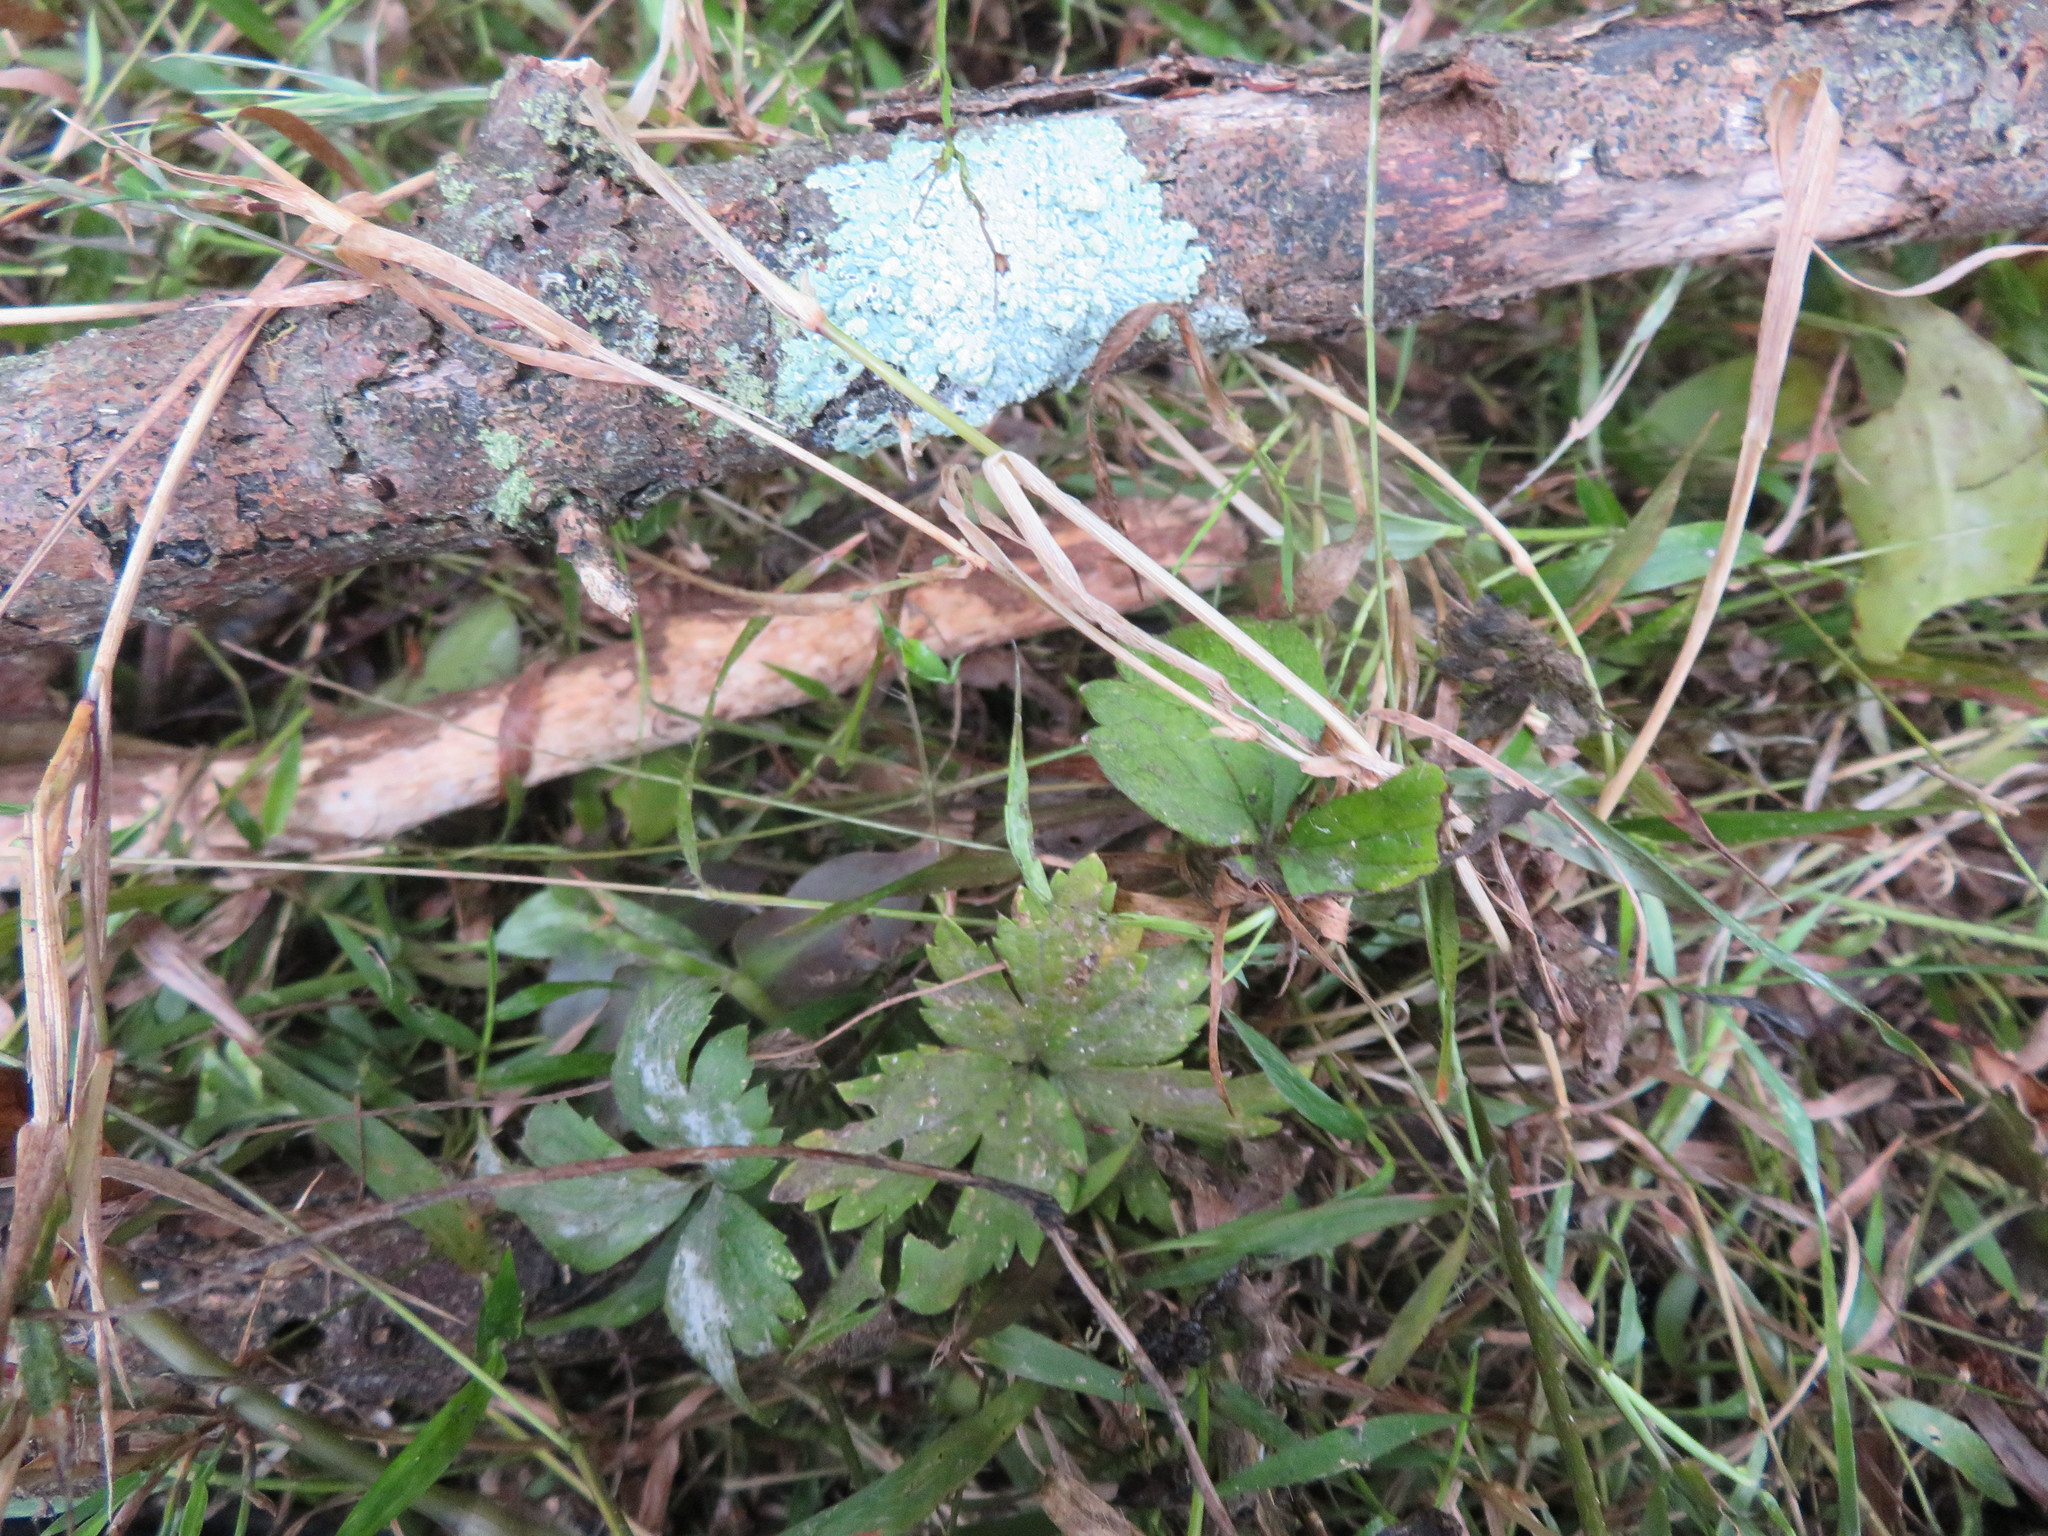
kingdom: Plantae
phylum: Tracheophyta
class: Magnoliopsida
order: Ranunculales
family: Ranunculaceae
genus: Ranunculus
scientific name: Ranunculus repens
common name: Creeping buttercup
